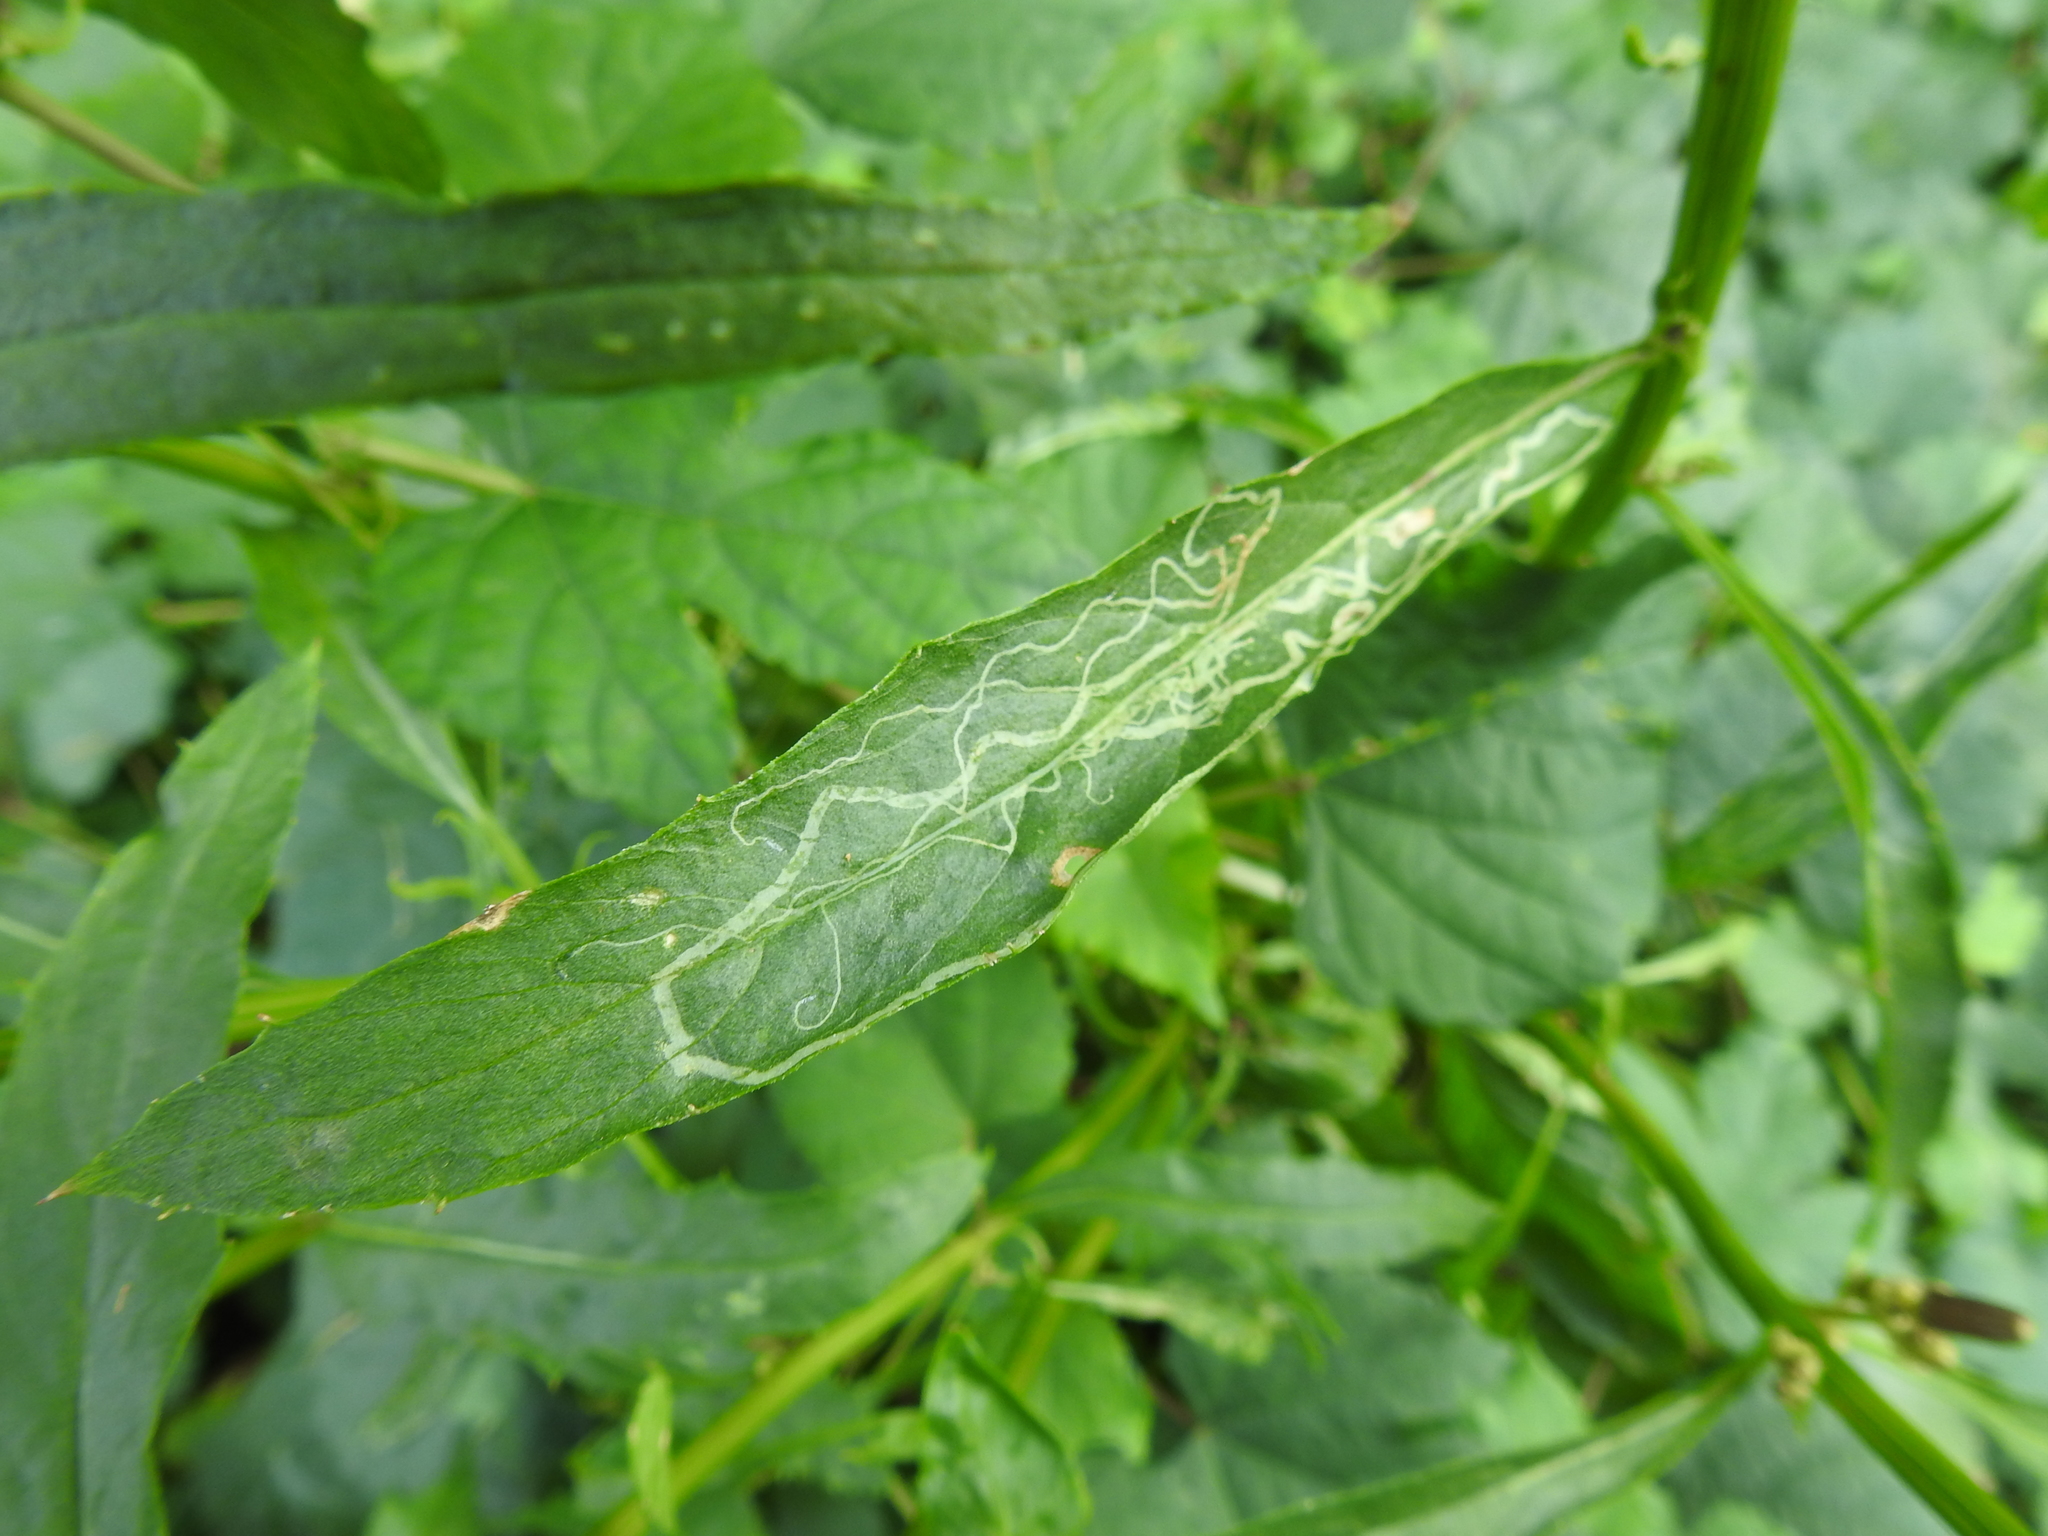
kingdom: Animalia
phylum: Arthropoda
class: Insecta
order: Lepidoptera
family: Gracillariidae
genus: Phyllocnistis
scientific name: Phyllocnistis insignis
